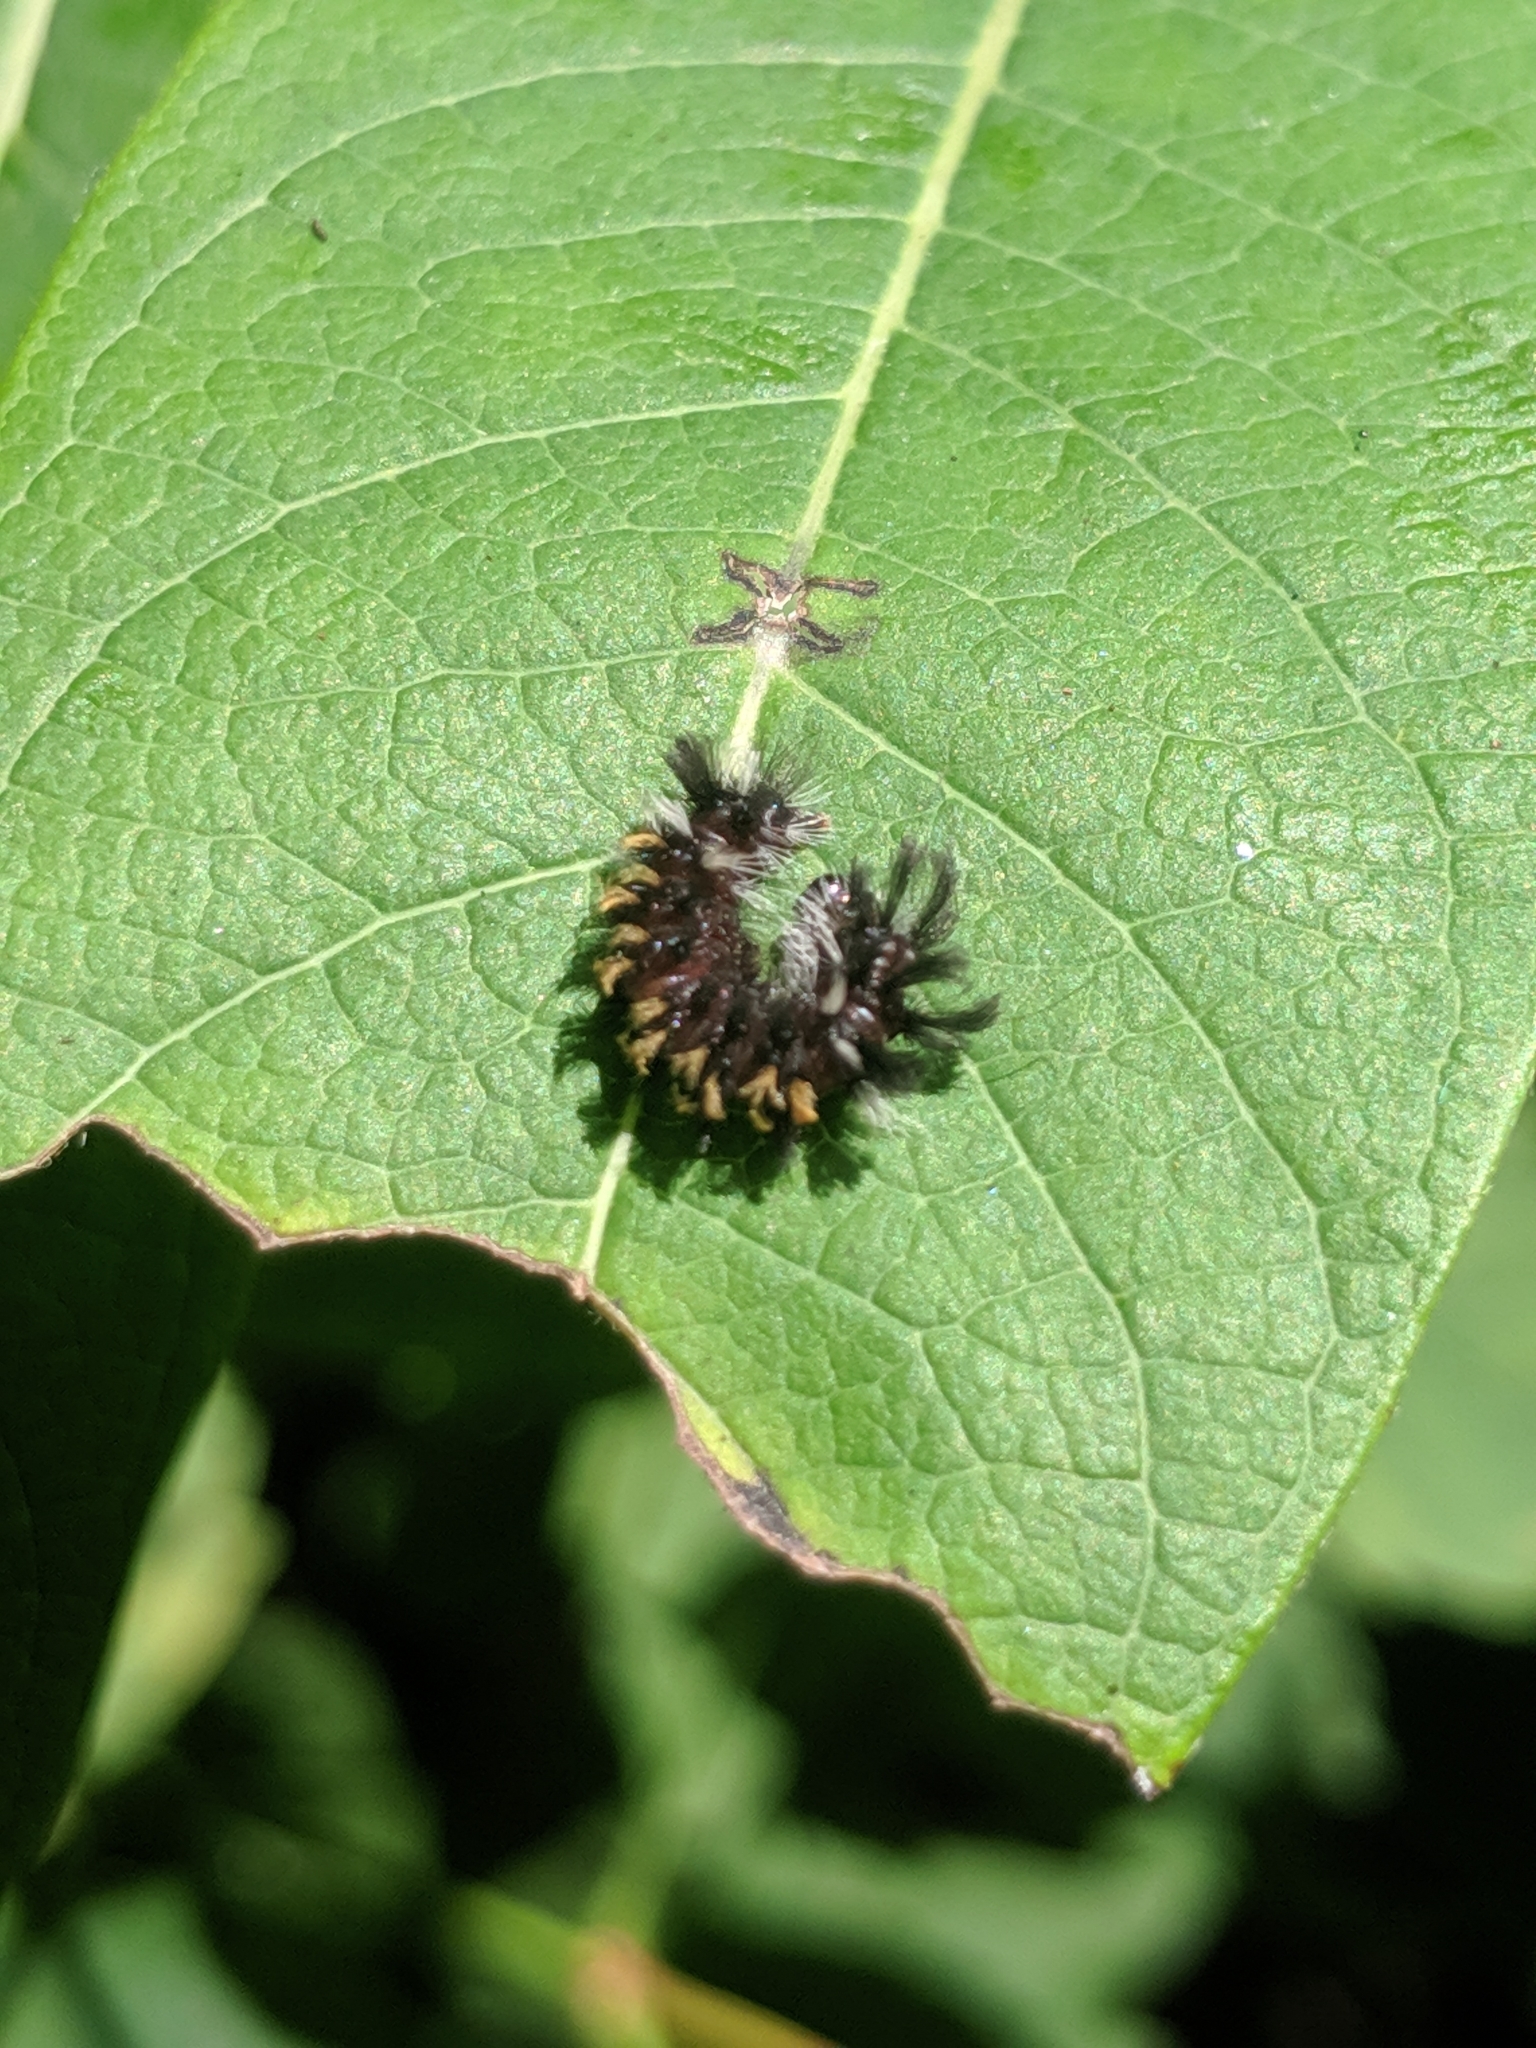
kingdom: Animalia
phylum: Arthropoda
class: Insecta
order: Lepidoptera
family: Erebidae
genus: Euchaetes
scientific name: Euchaetes egle
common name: Milkweed tussock moth
